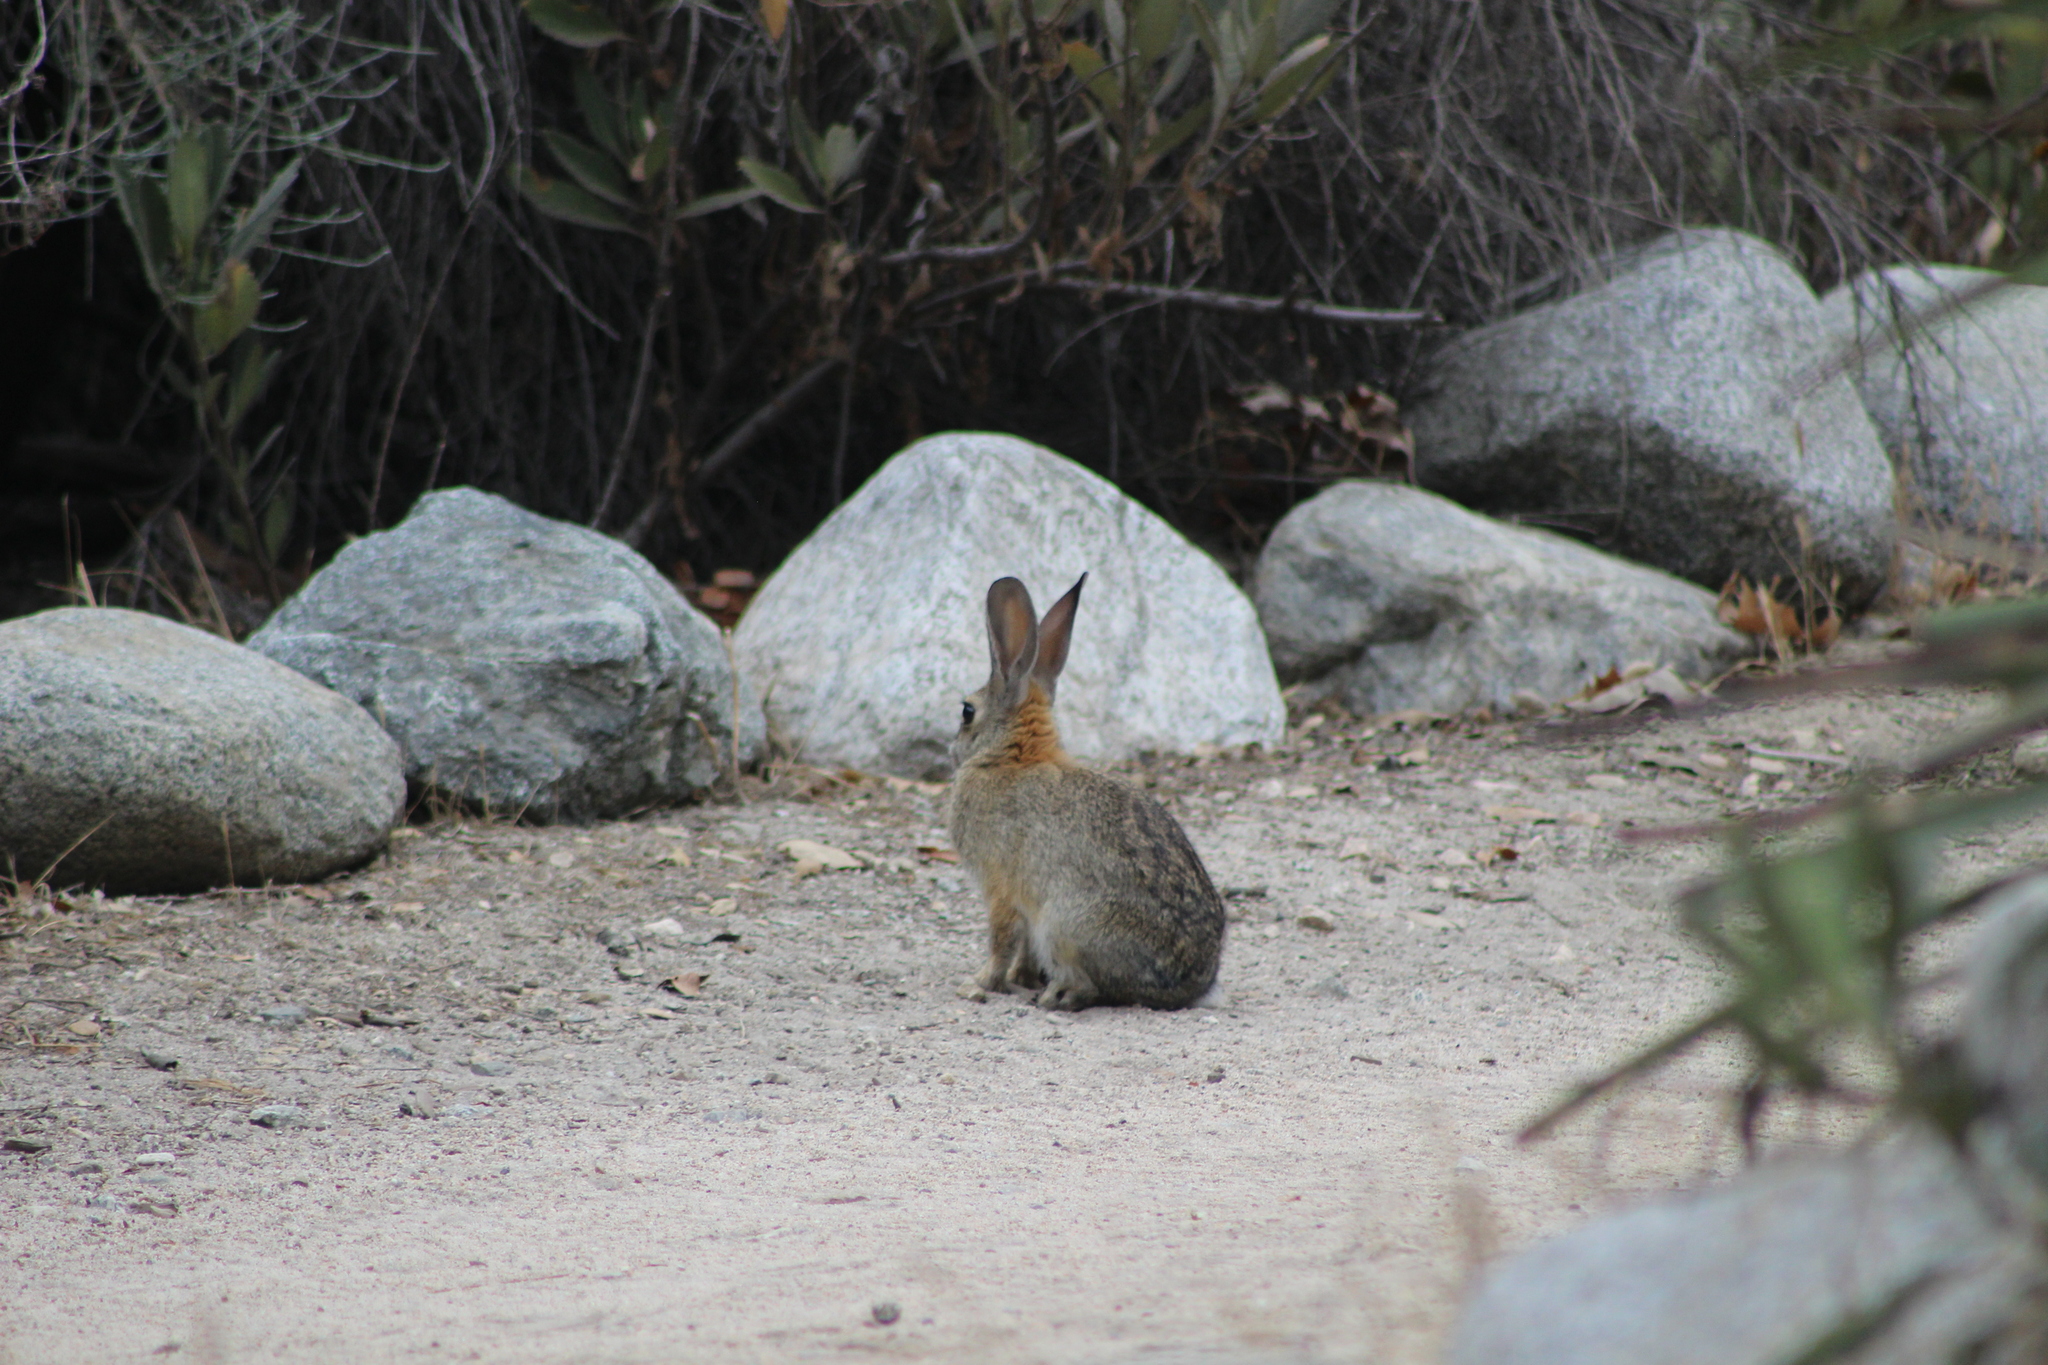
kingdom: Animalia
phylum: Chordata
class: Mammalia
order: Lagomorpha
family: Leporidae
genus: Sylvilagus
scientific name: Sylvilagus audubonii
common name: Desert cottontail
